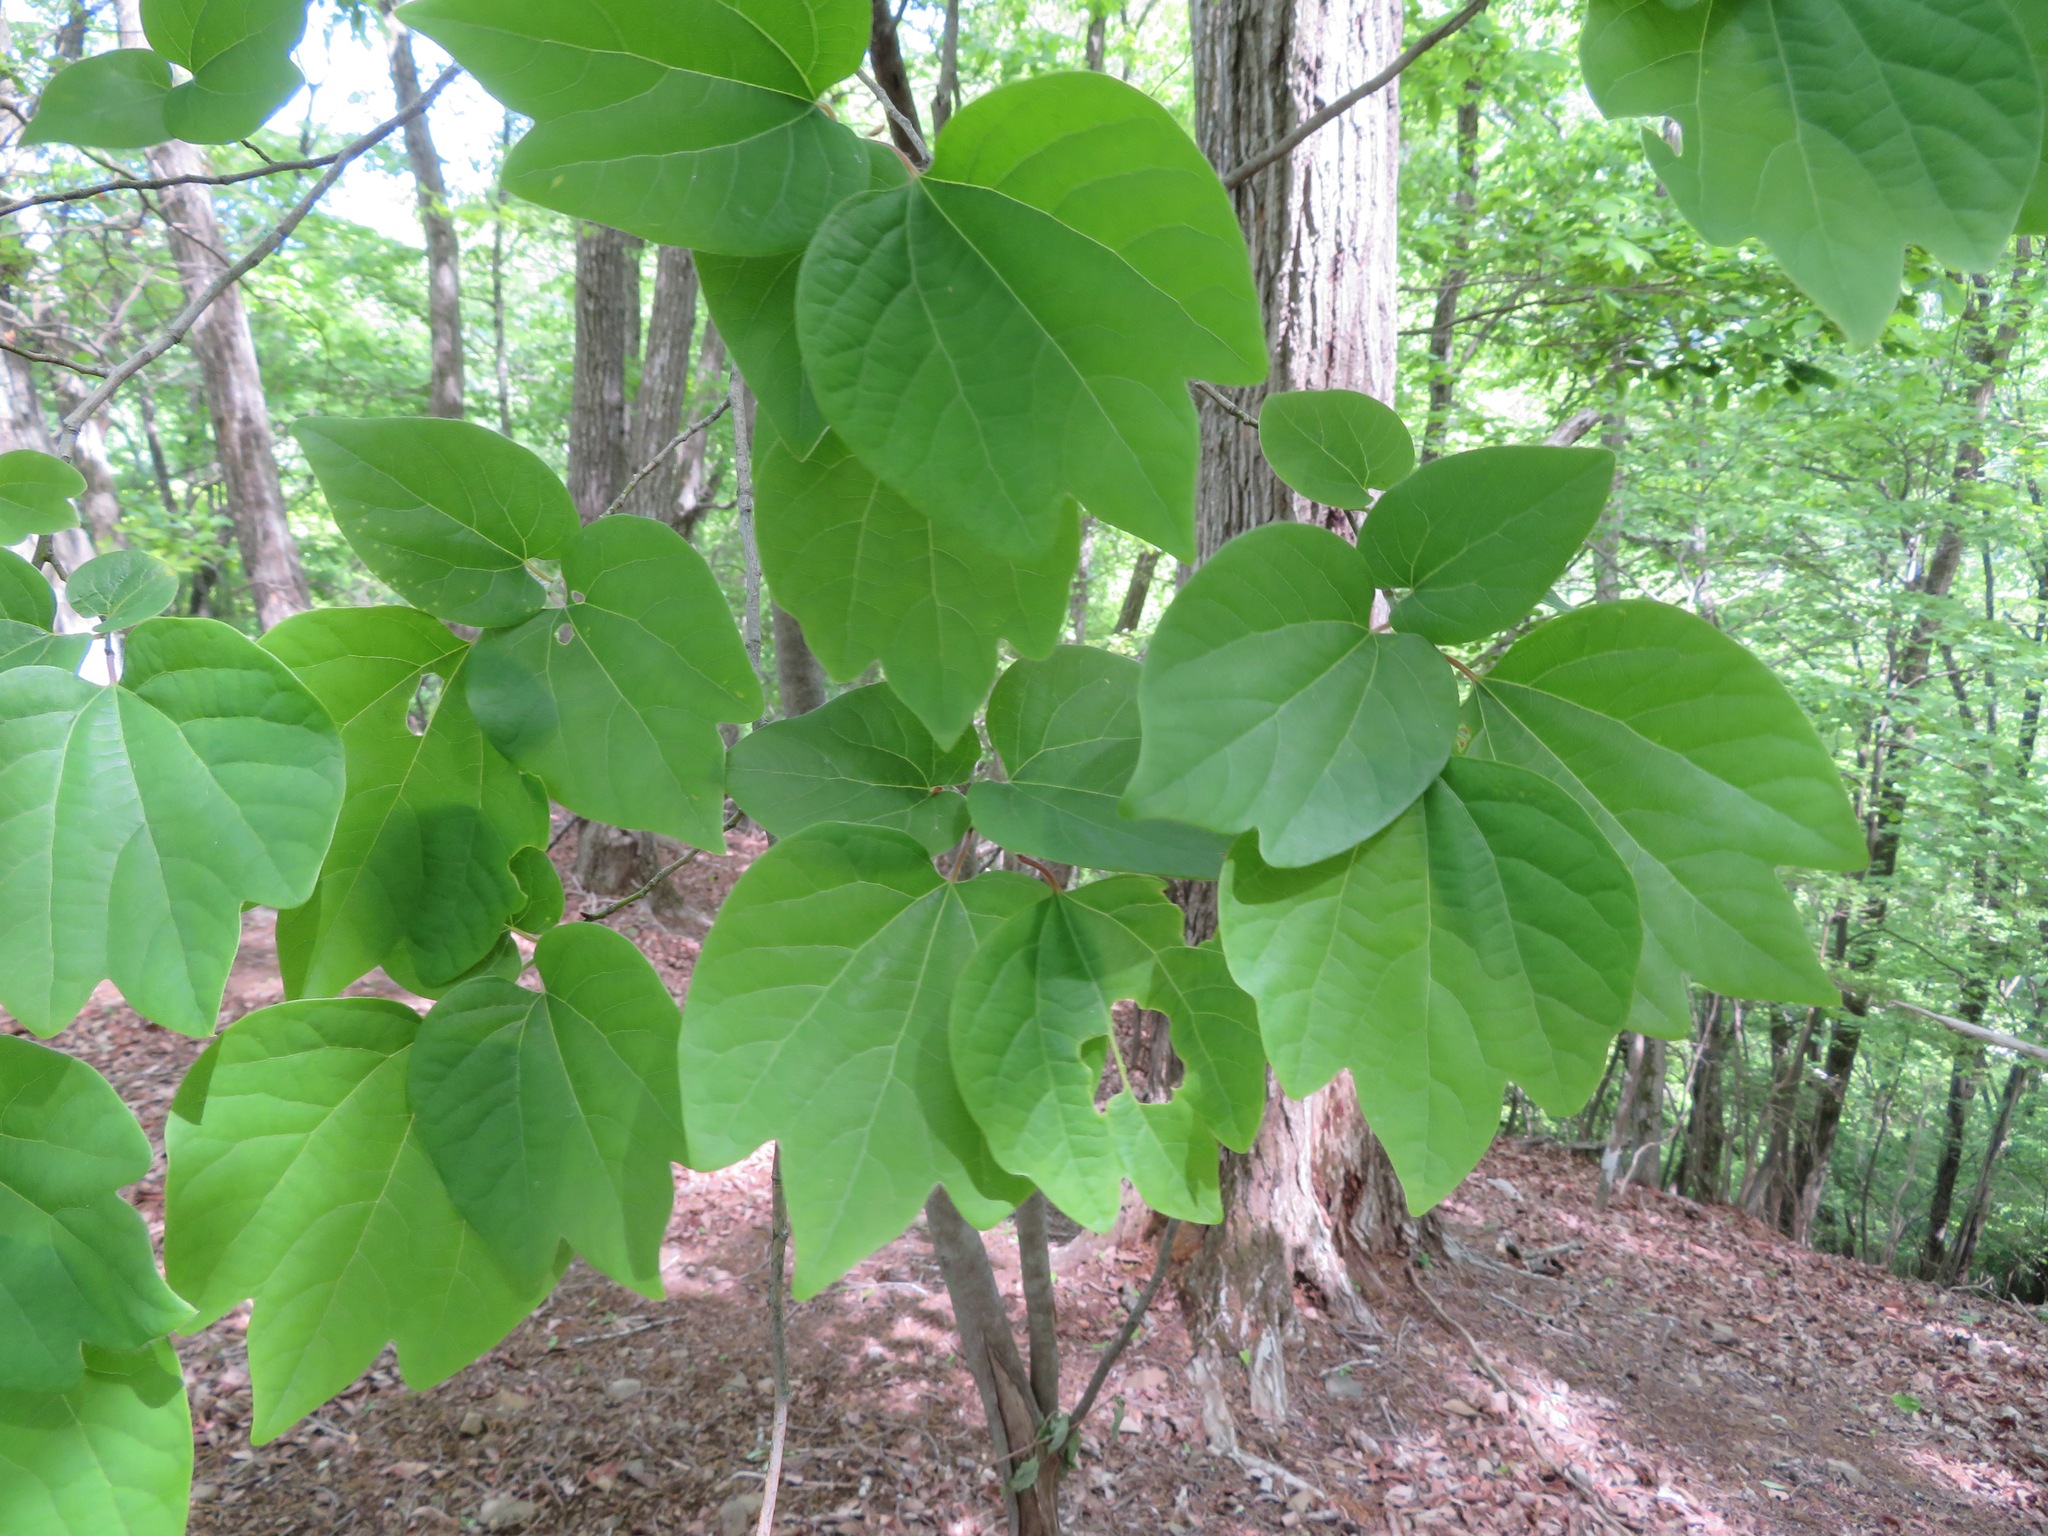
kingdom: Plantae
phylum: Tracheophyta
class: Magnoliopsida
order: Laurales
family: Lauraceae
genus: Lindera
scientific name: Lindera obtusiloba
